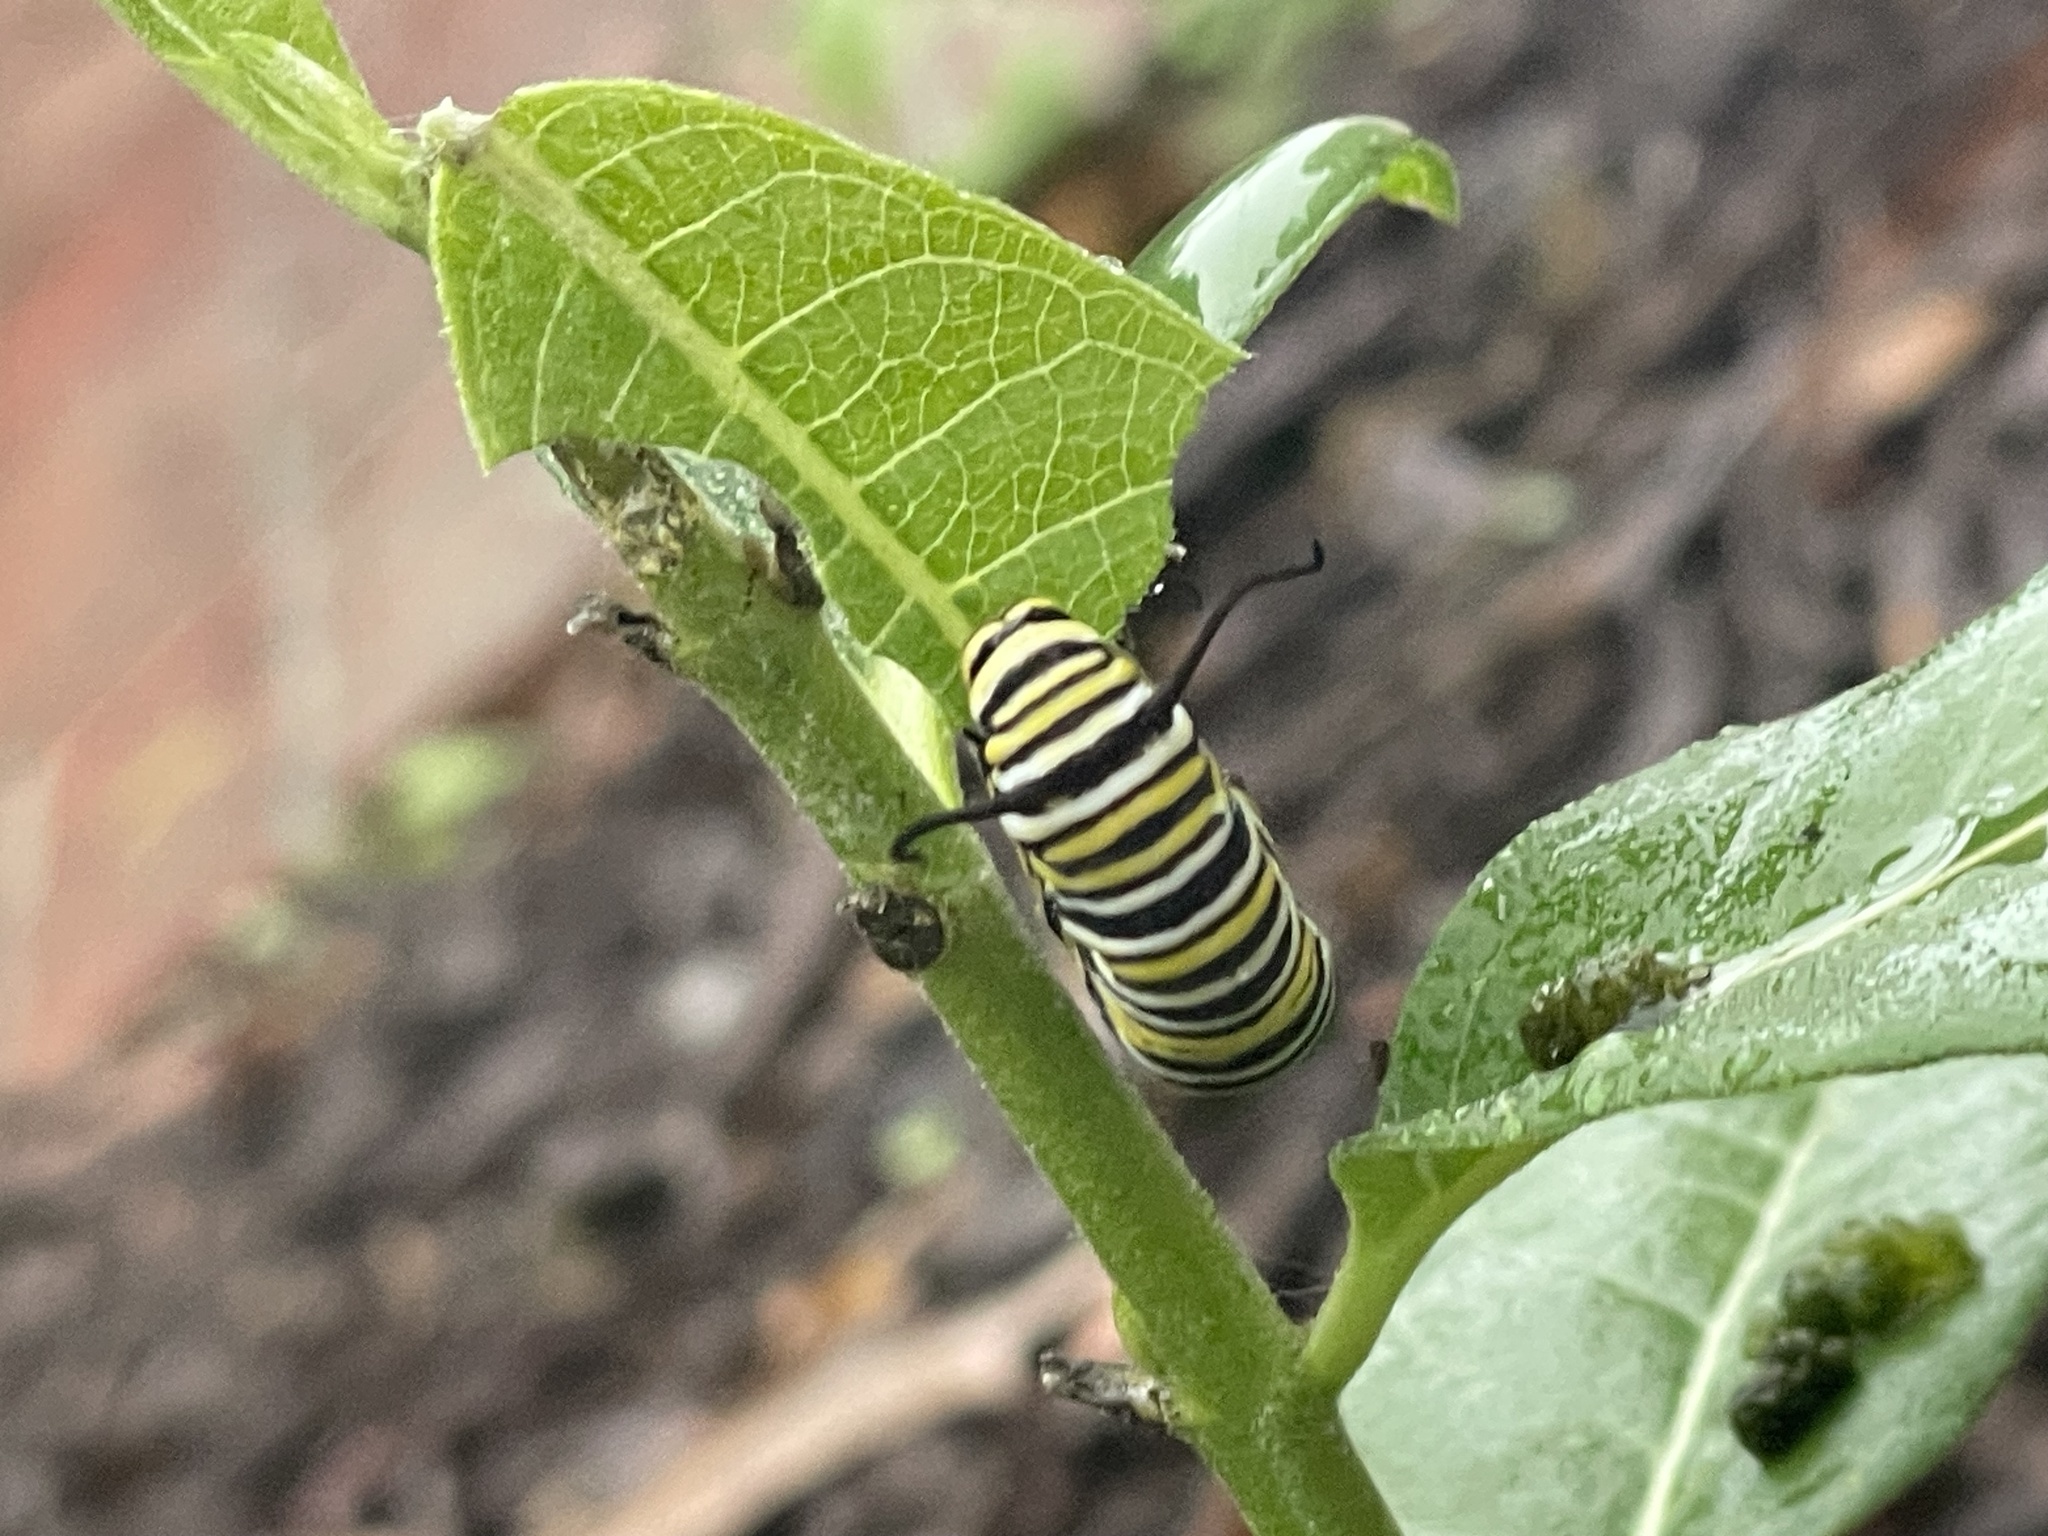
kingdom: Animalia
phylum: Arthropoda
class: Insecta
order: Lepidoptera
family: Nymphalidae
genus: Danaus
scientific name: Danaus plexippus
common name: Monarch
